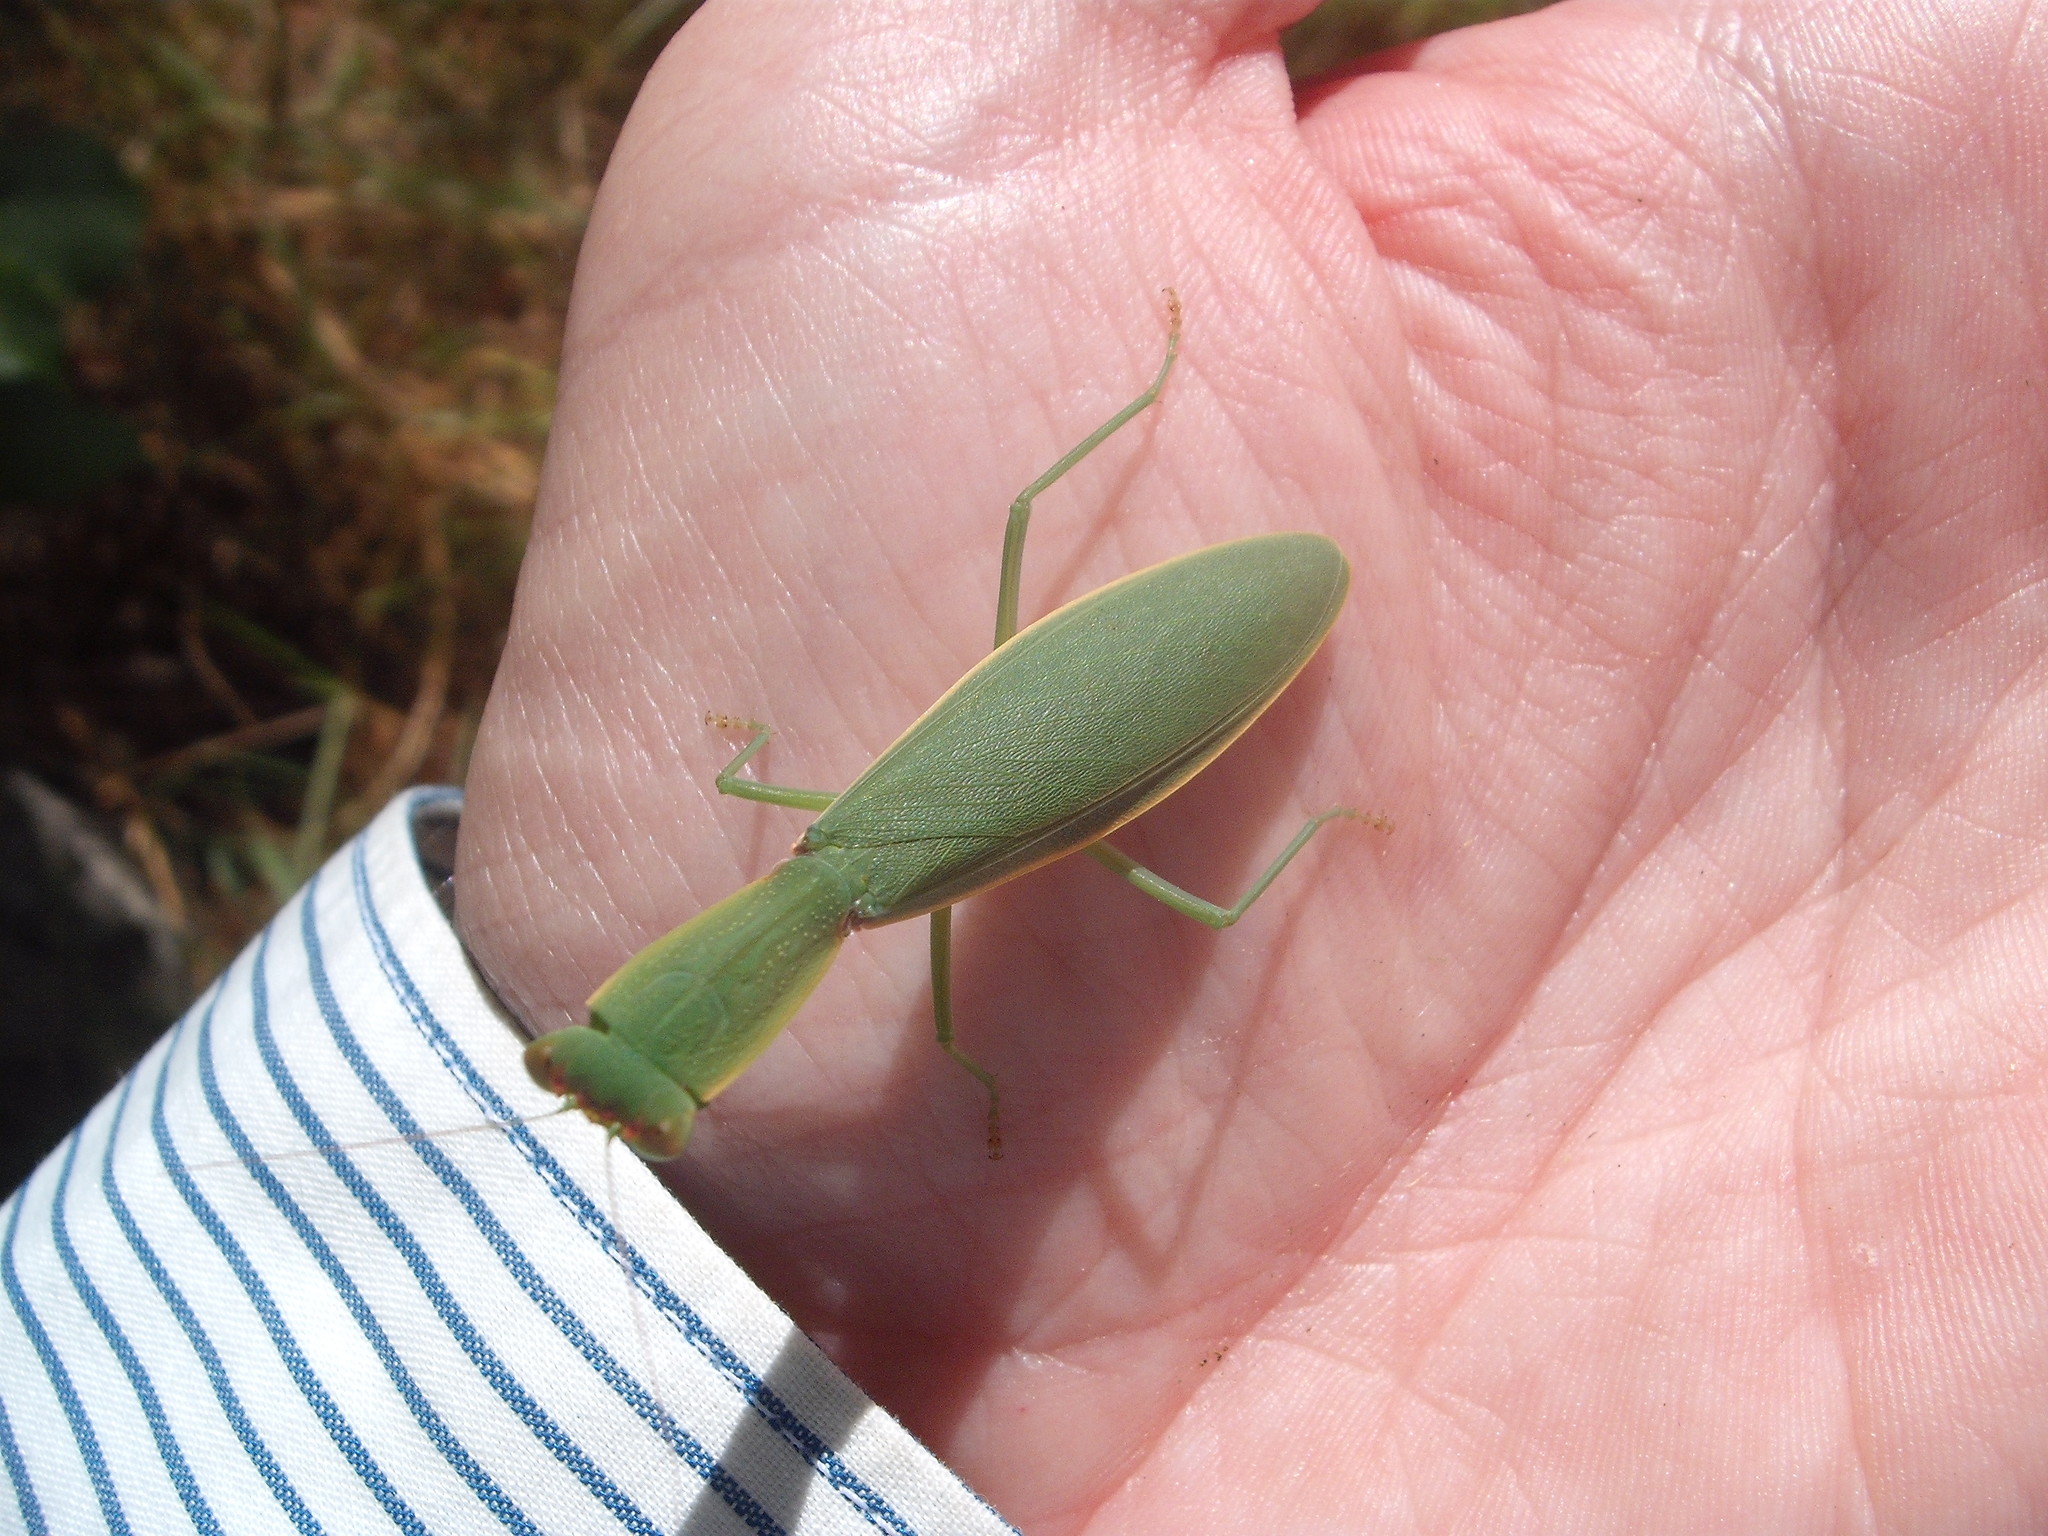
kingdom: Animalia
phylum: Arthropoda
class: Insecta
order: Mantodea
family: Mantidae
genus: Orthodera
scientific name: Orthodera novaezealandiae
